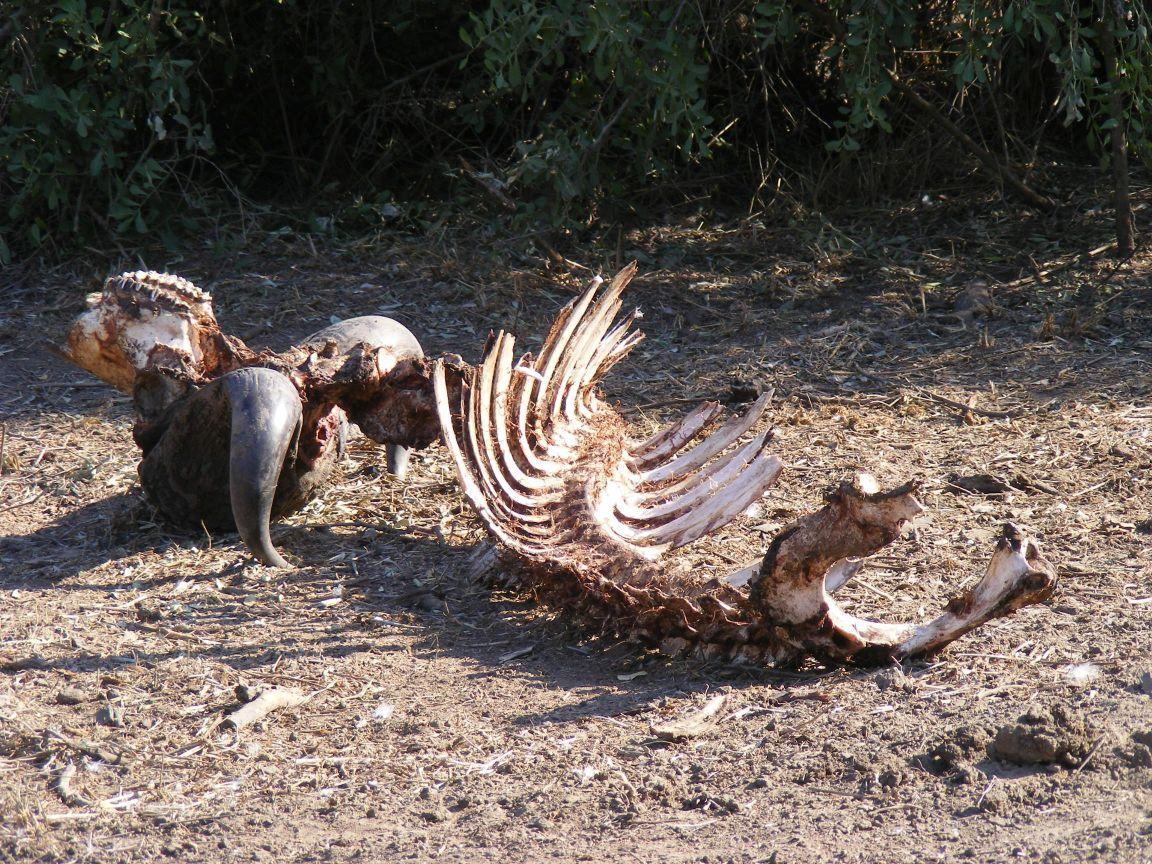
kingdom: Animalia
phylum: Chordata
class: Mammalia
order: Artiodactyla
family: Bovidae
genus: Syncerus
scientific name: Syncerus caffer
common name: African buffalo
